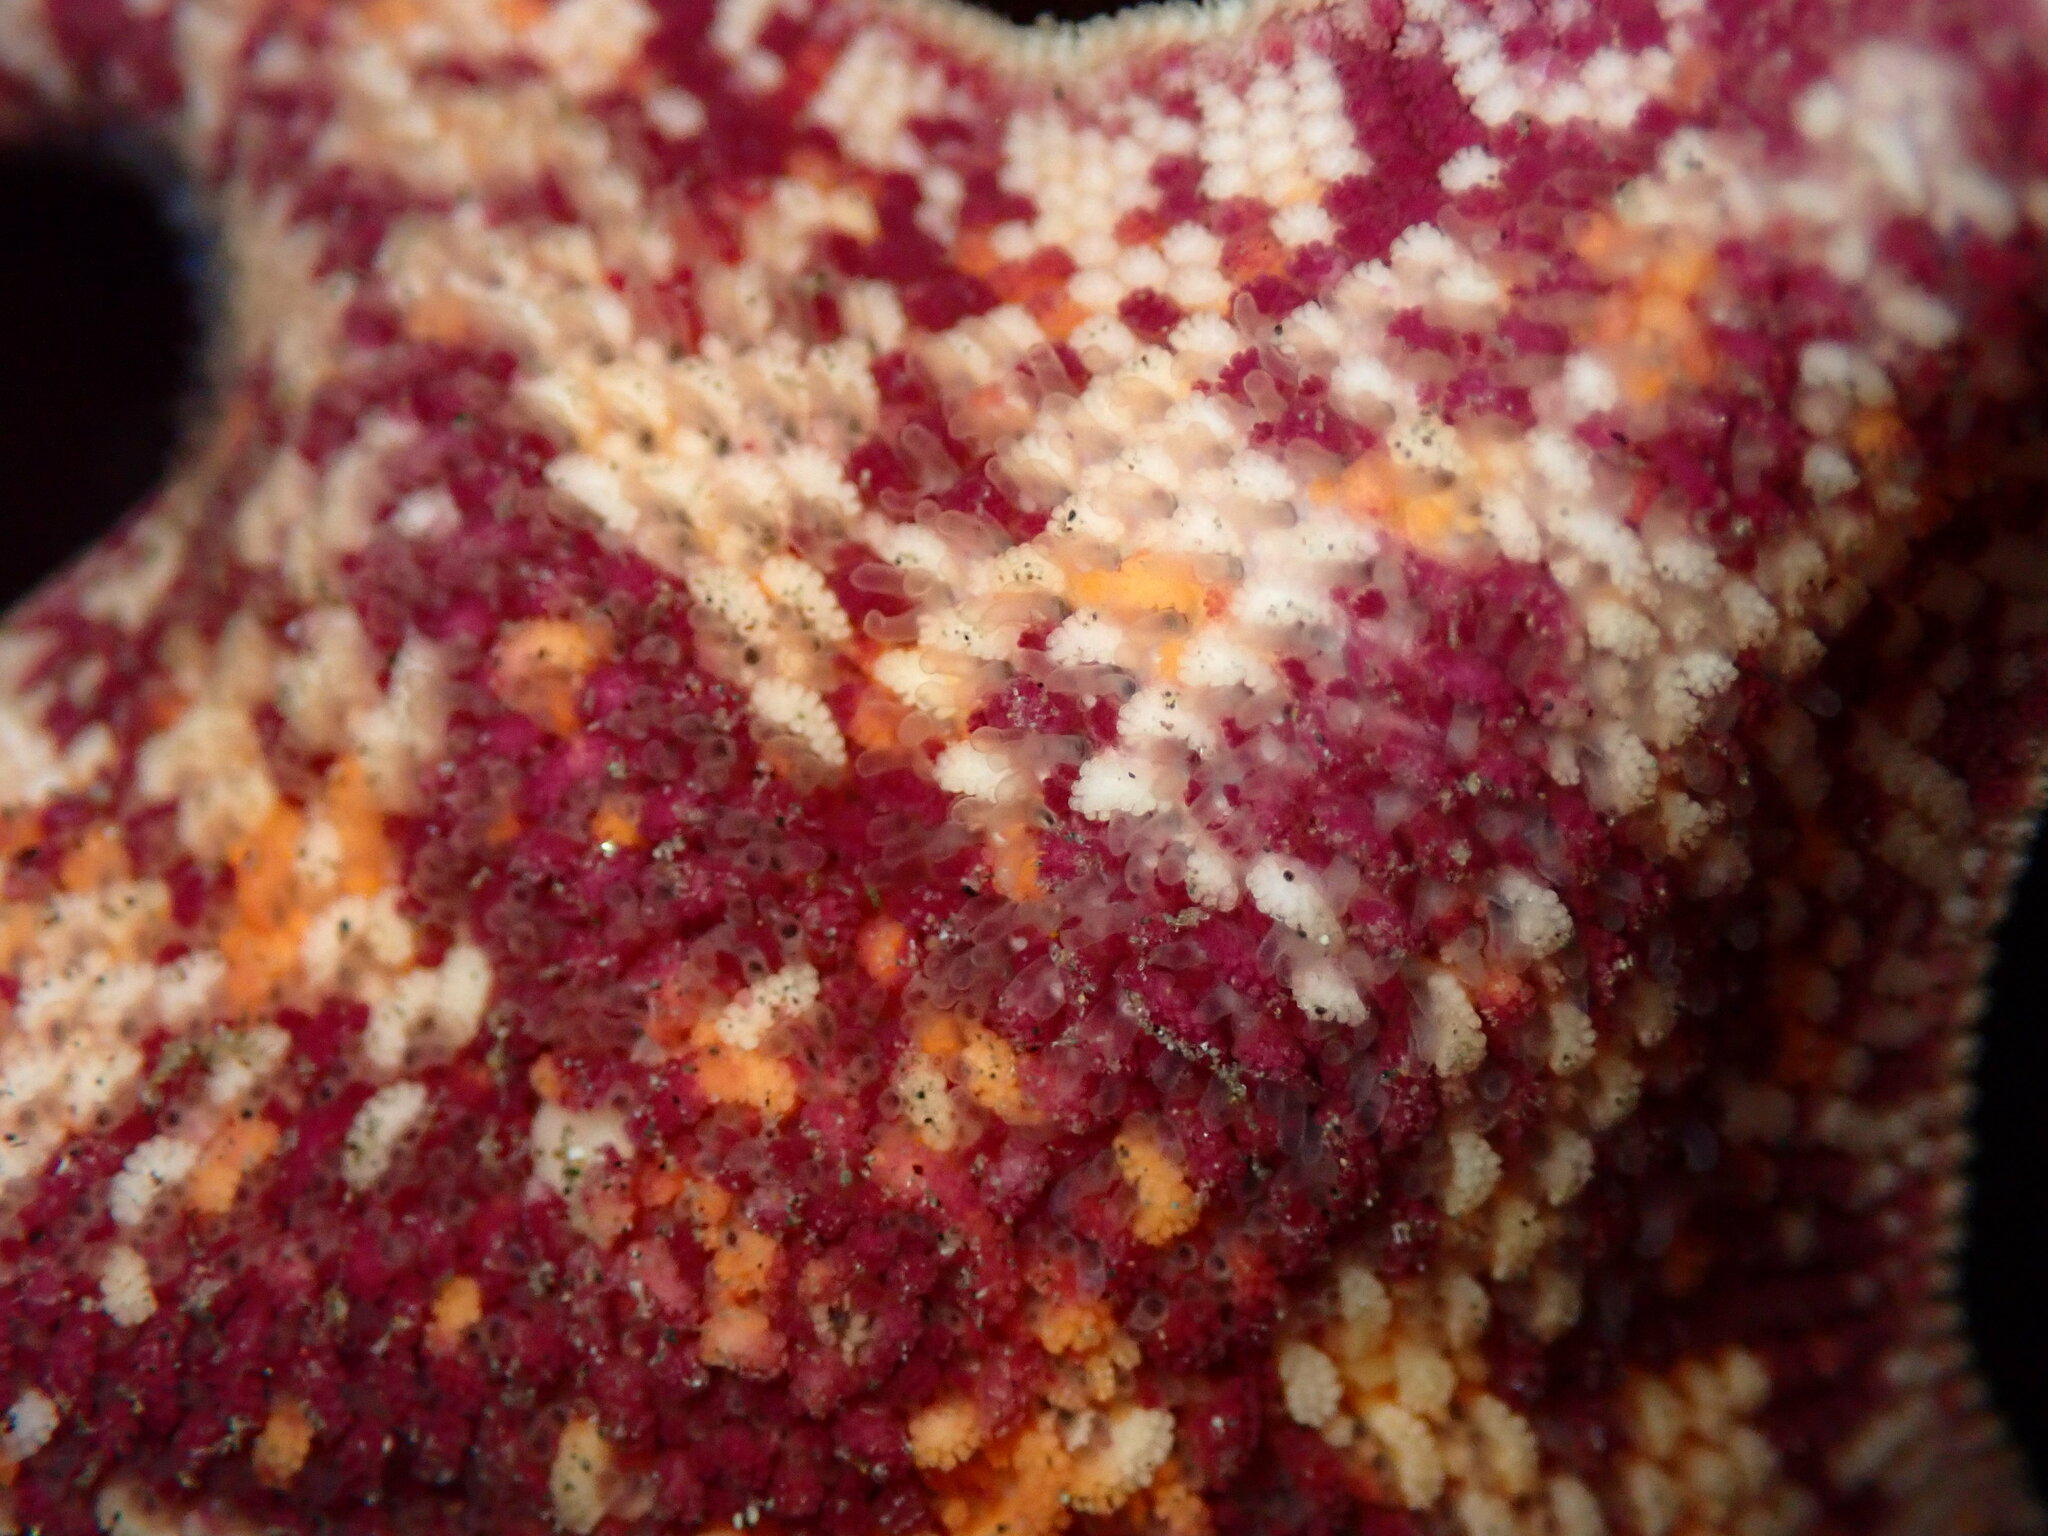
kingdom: Animalia
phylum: Echinodermata
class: Asteroidea
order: Valvatida
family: Asterinidae
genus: Patiria
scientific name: Patiria miniata
